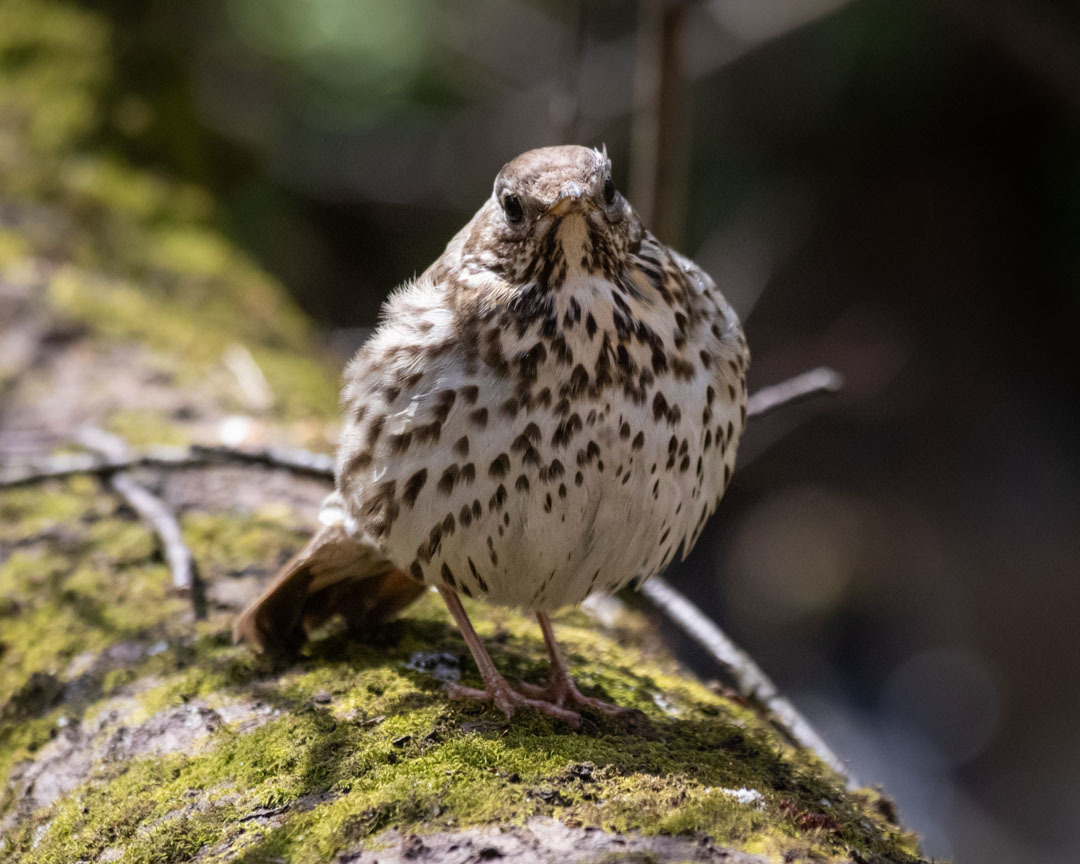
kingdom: Animalia
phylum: Chordata
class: Aves
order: Passeriformes
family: Turdidae
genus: Turdus
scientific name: Turdus philomelos
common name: Song thrush
